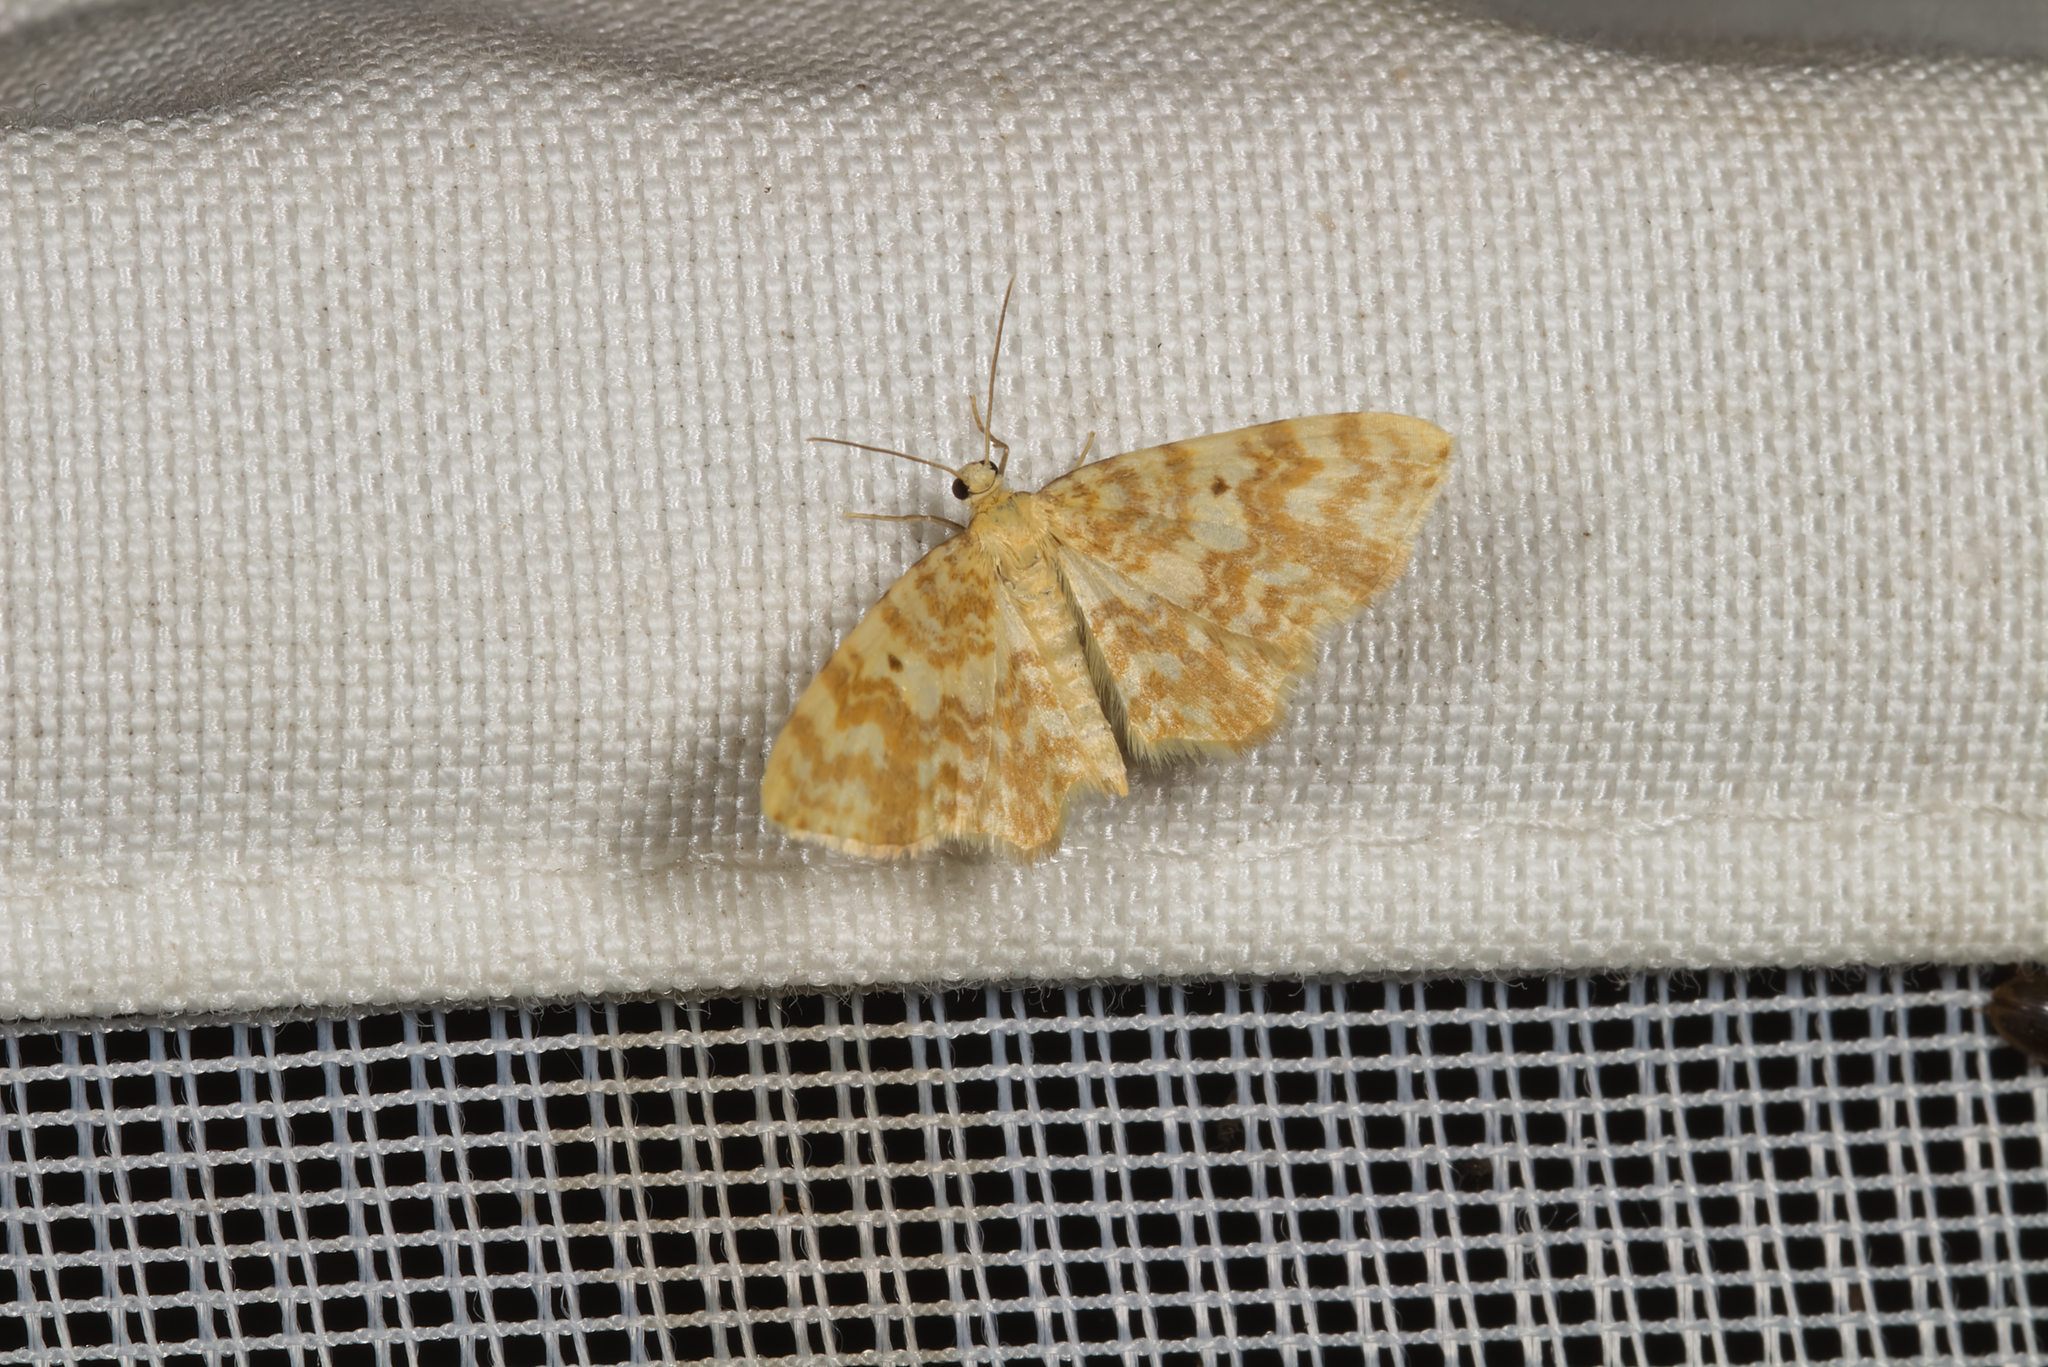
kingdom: Animalia
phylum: Arthropoda
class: Insecta
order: Lepidoptera
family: Geometridae
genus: Hydrelia
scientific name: Hydrelia flammeolaria
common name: Small yellow wave
